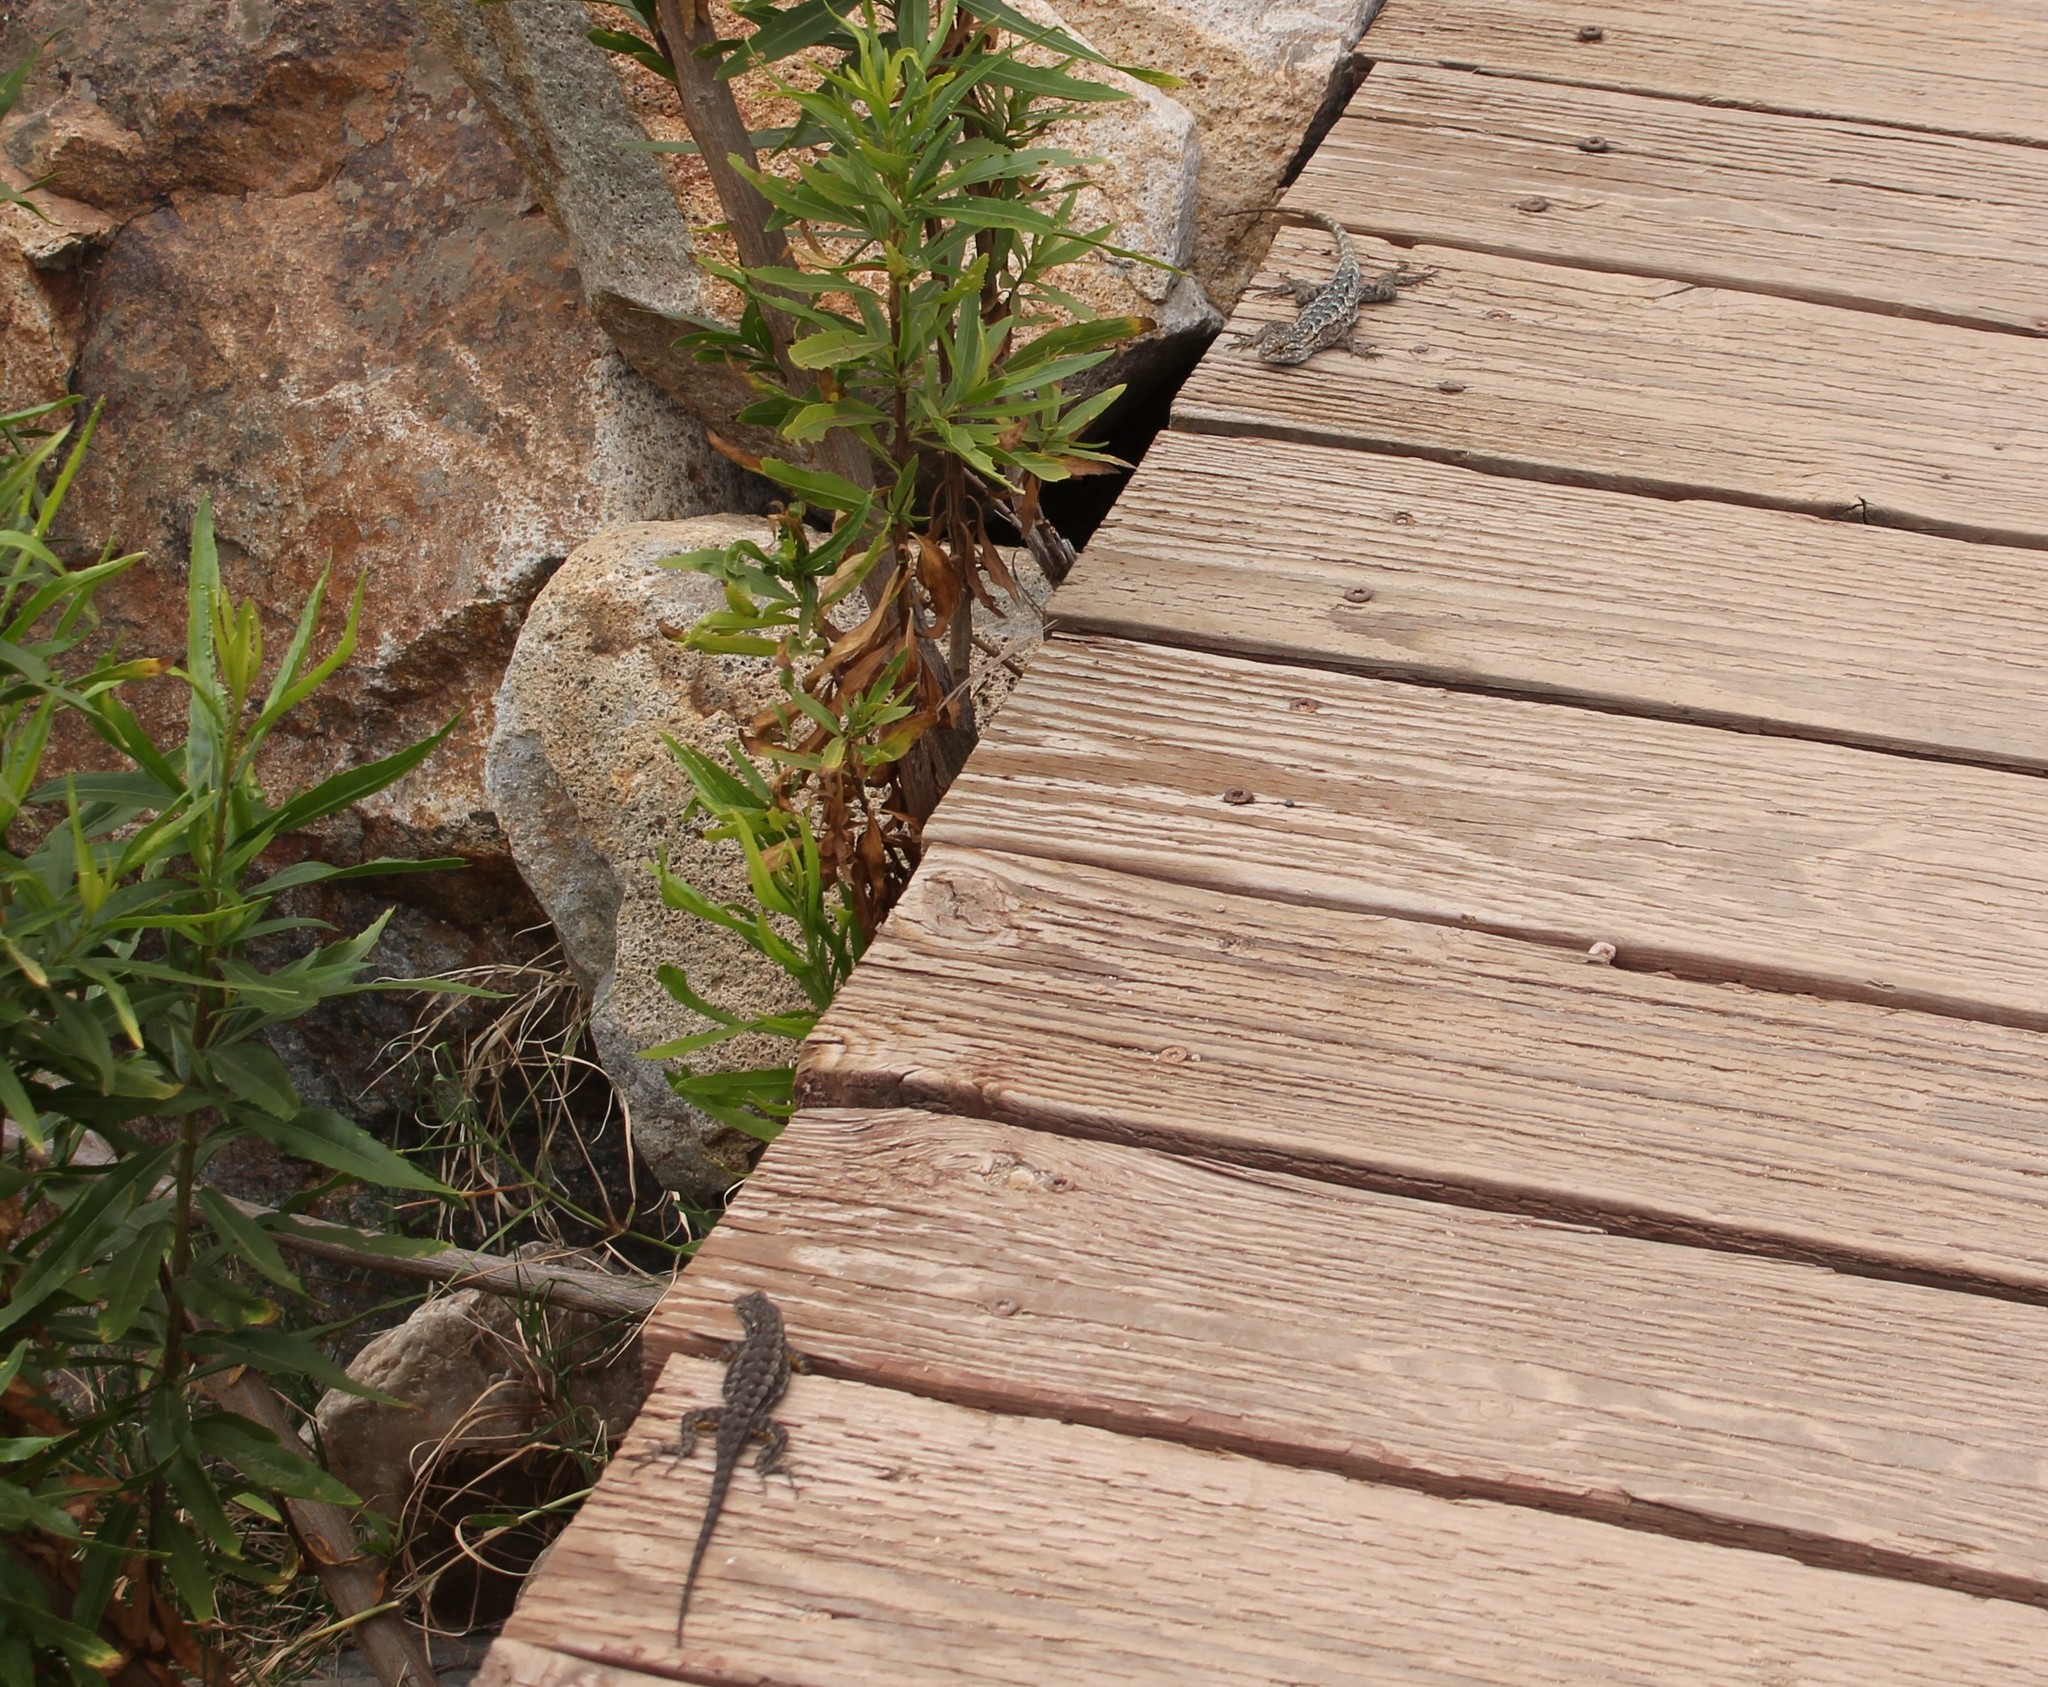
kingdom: Animalia
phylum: Chordata
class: Squamata
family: Phrynosomatidae
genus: Sceloporus
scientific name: Sceloporus occidentalis
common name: Western fence lizard
